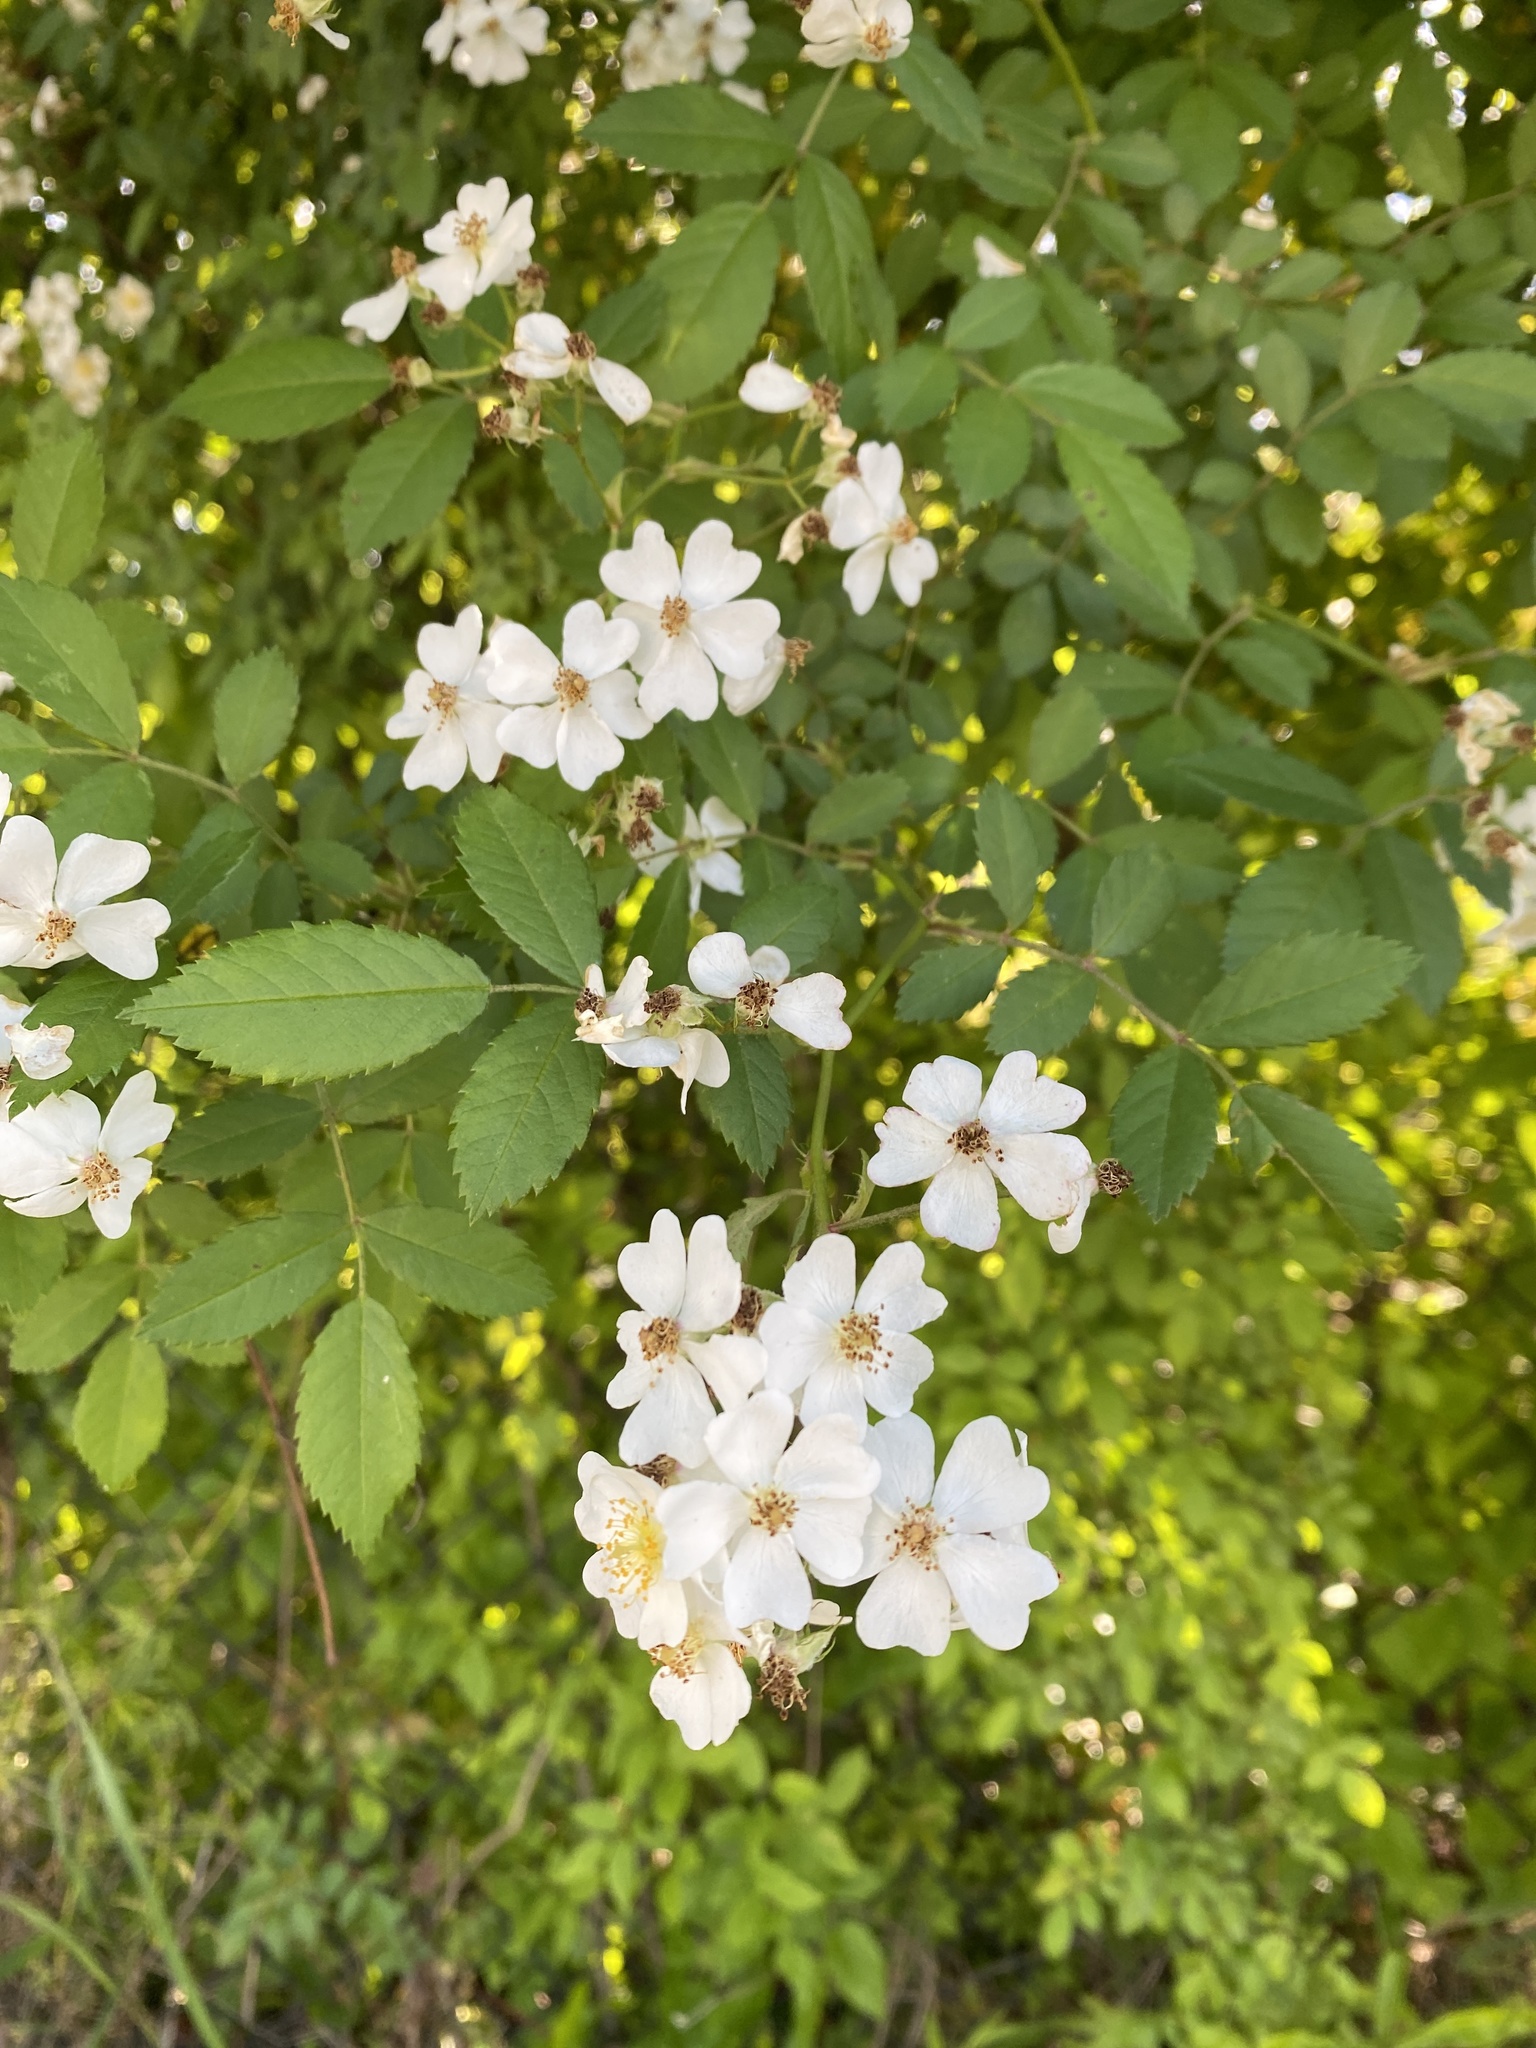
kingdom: Plantae
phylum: Tracheophyta
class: Magnoliopsida
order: Rosales
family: Rosaceae
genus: Rosa
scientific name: Rosa multiflora
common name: Multiflora rose
